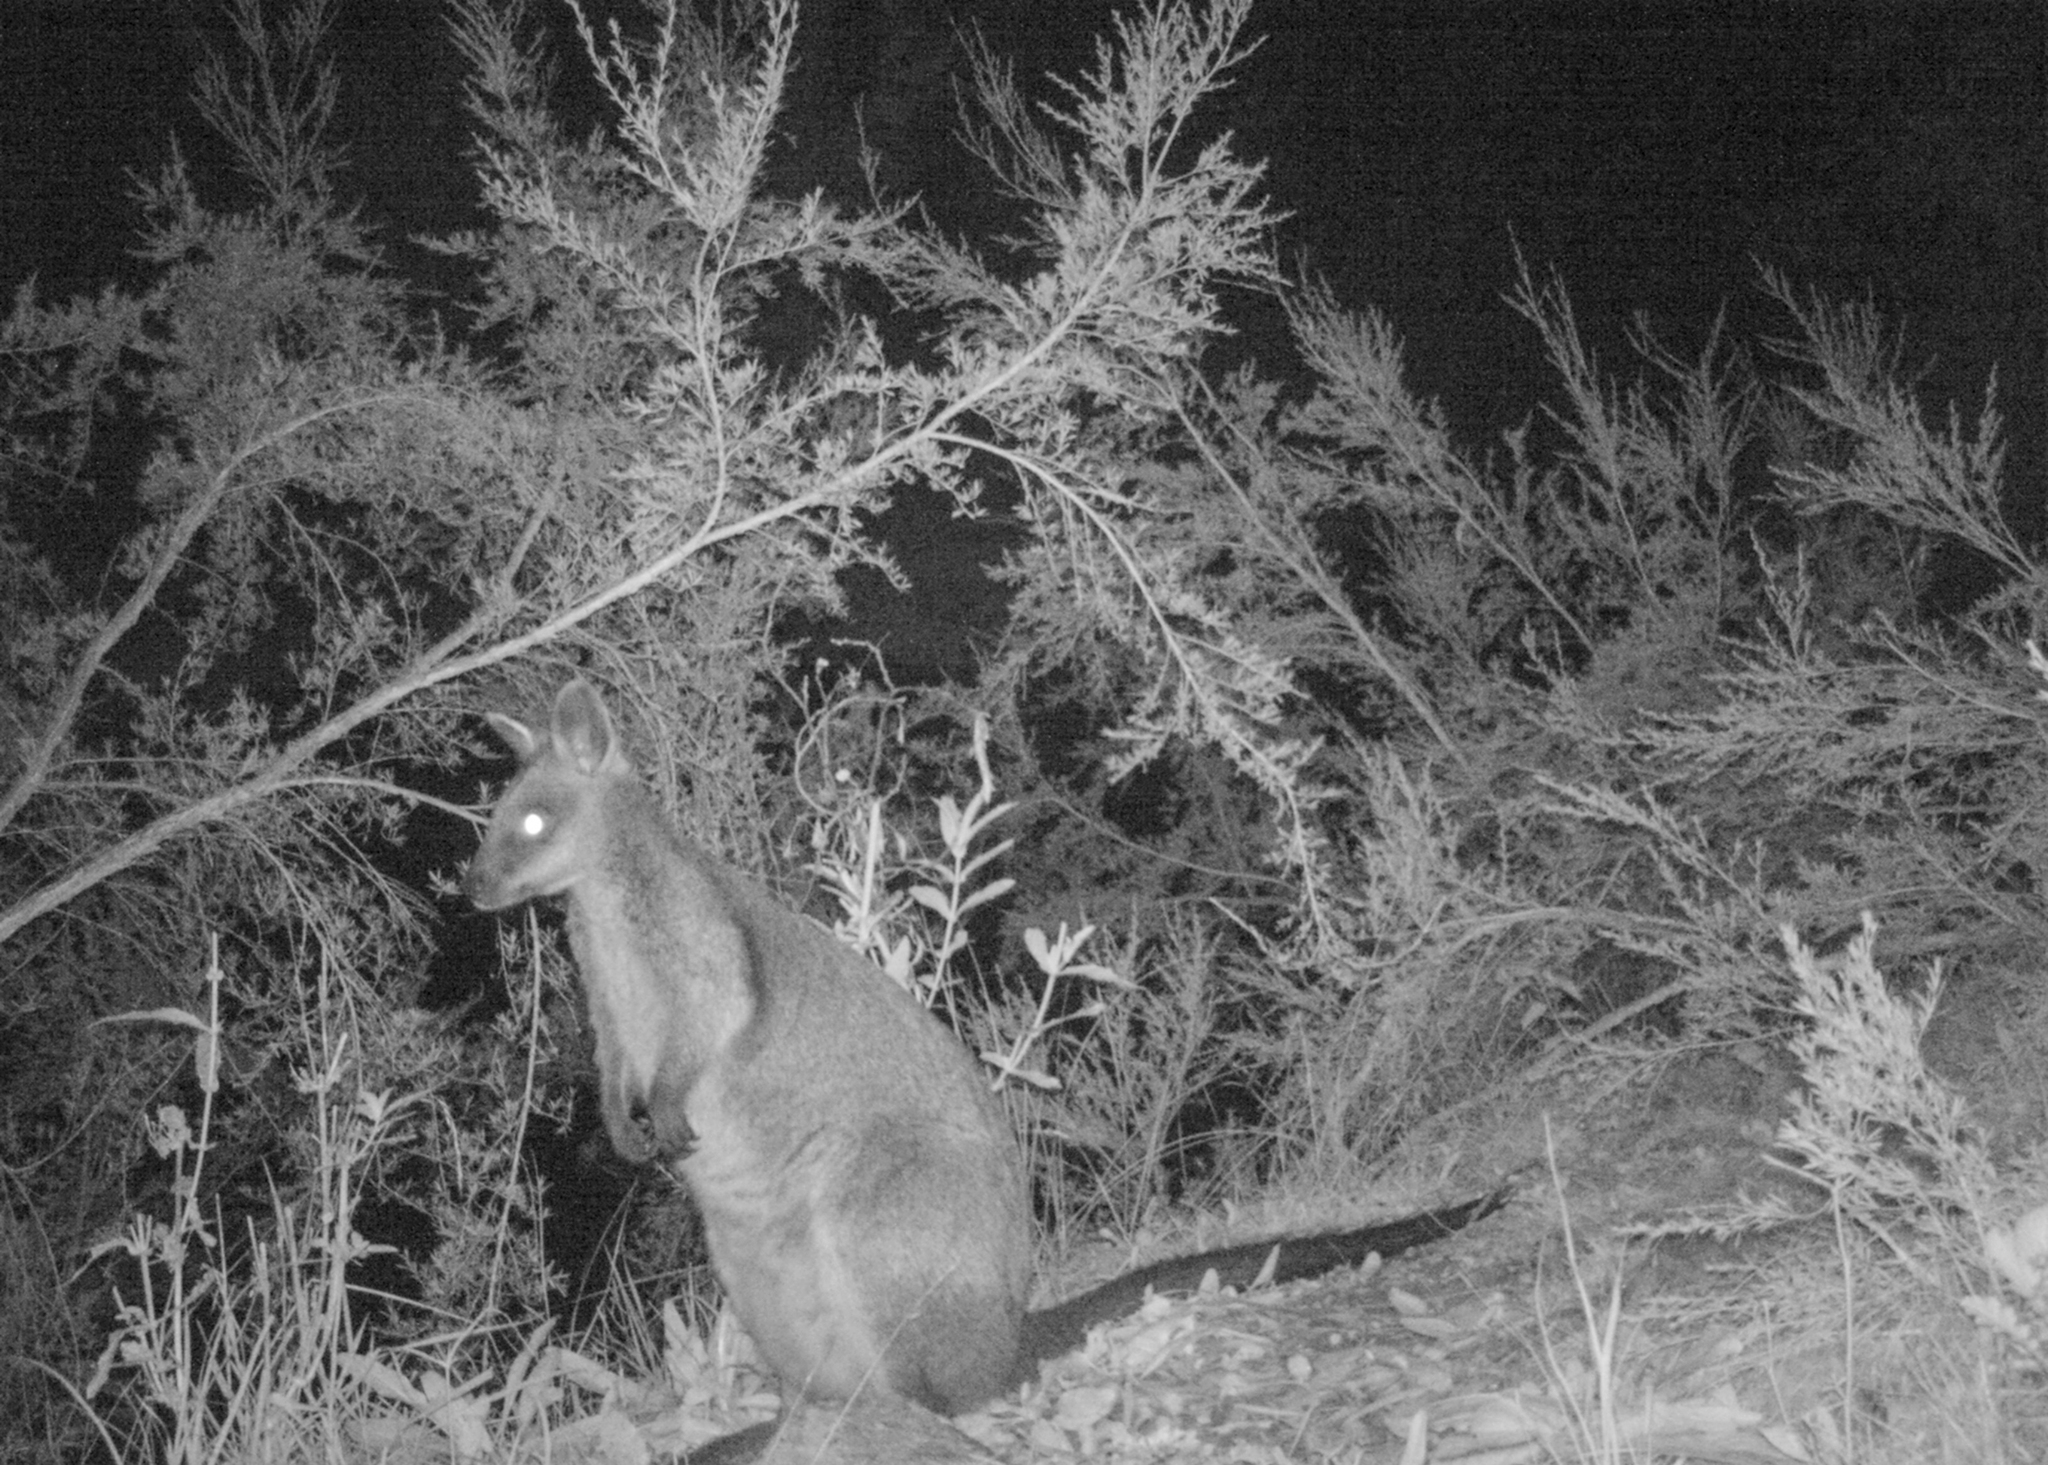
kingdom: Animalia
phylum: Chordata
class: Mammalia
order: Diprotodontia
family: Macropodidae
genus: Wallabia
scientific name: Wallabia bicolor
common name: Swamp wallaby
